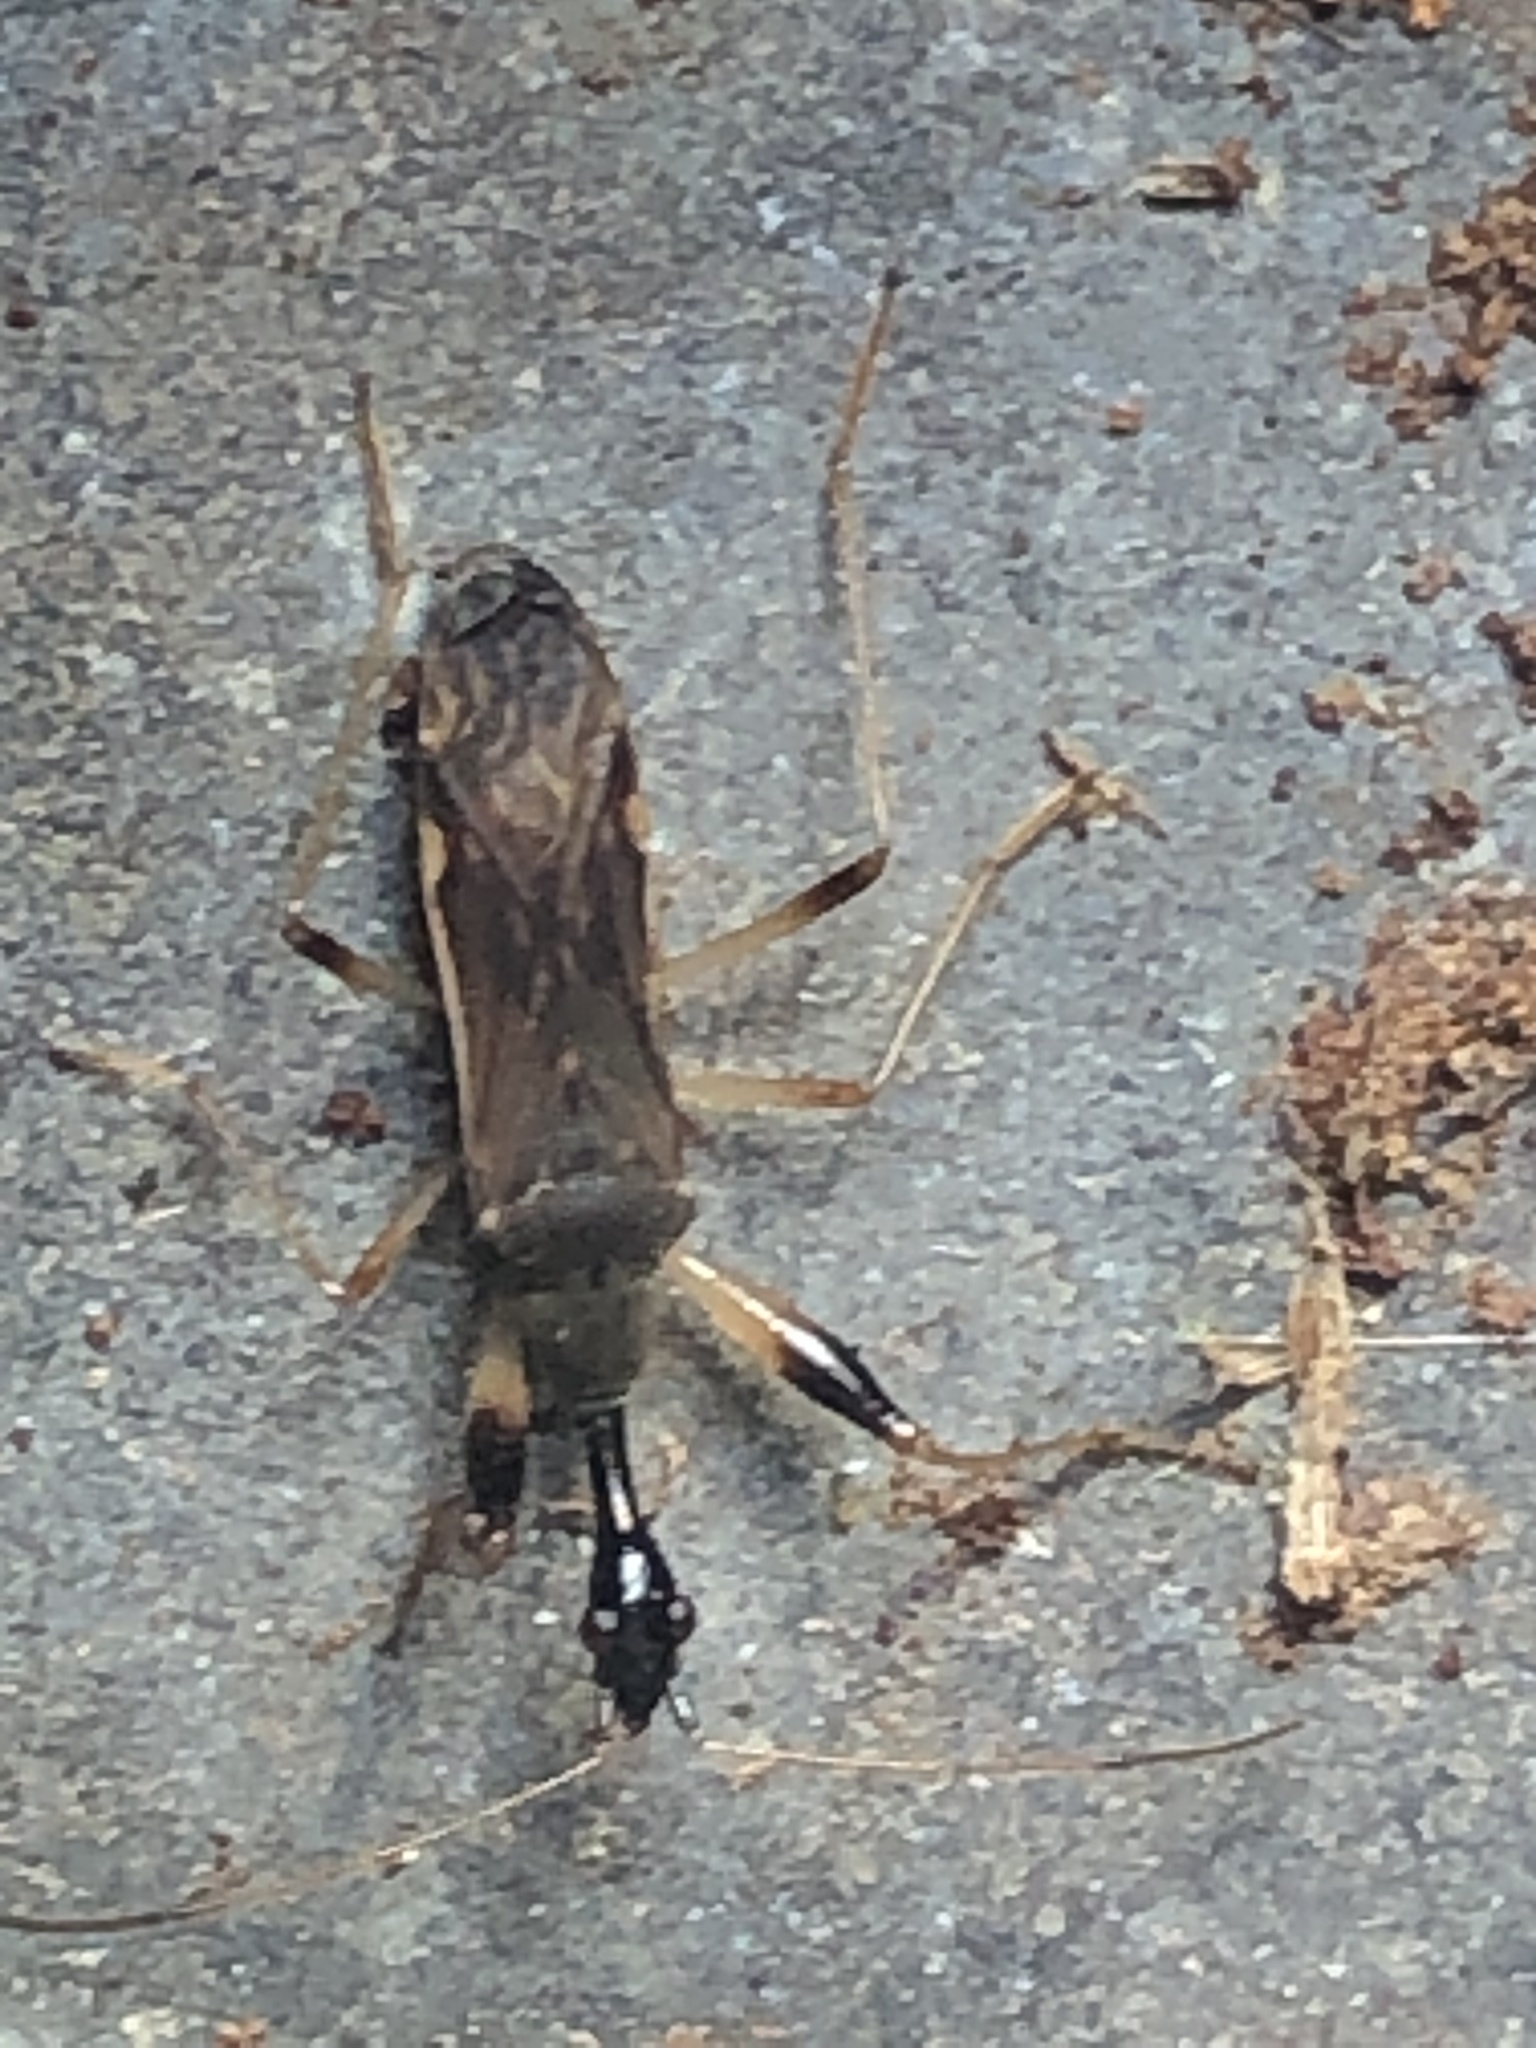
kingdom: Animalia
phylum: Arthropoda
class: Insecta
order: Hemiptera
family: Rhyparochromidae
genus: Myodocha
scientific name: Myodocha serripes
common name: Long-necked seed bug
